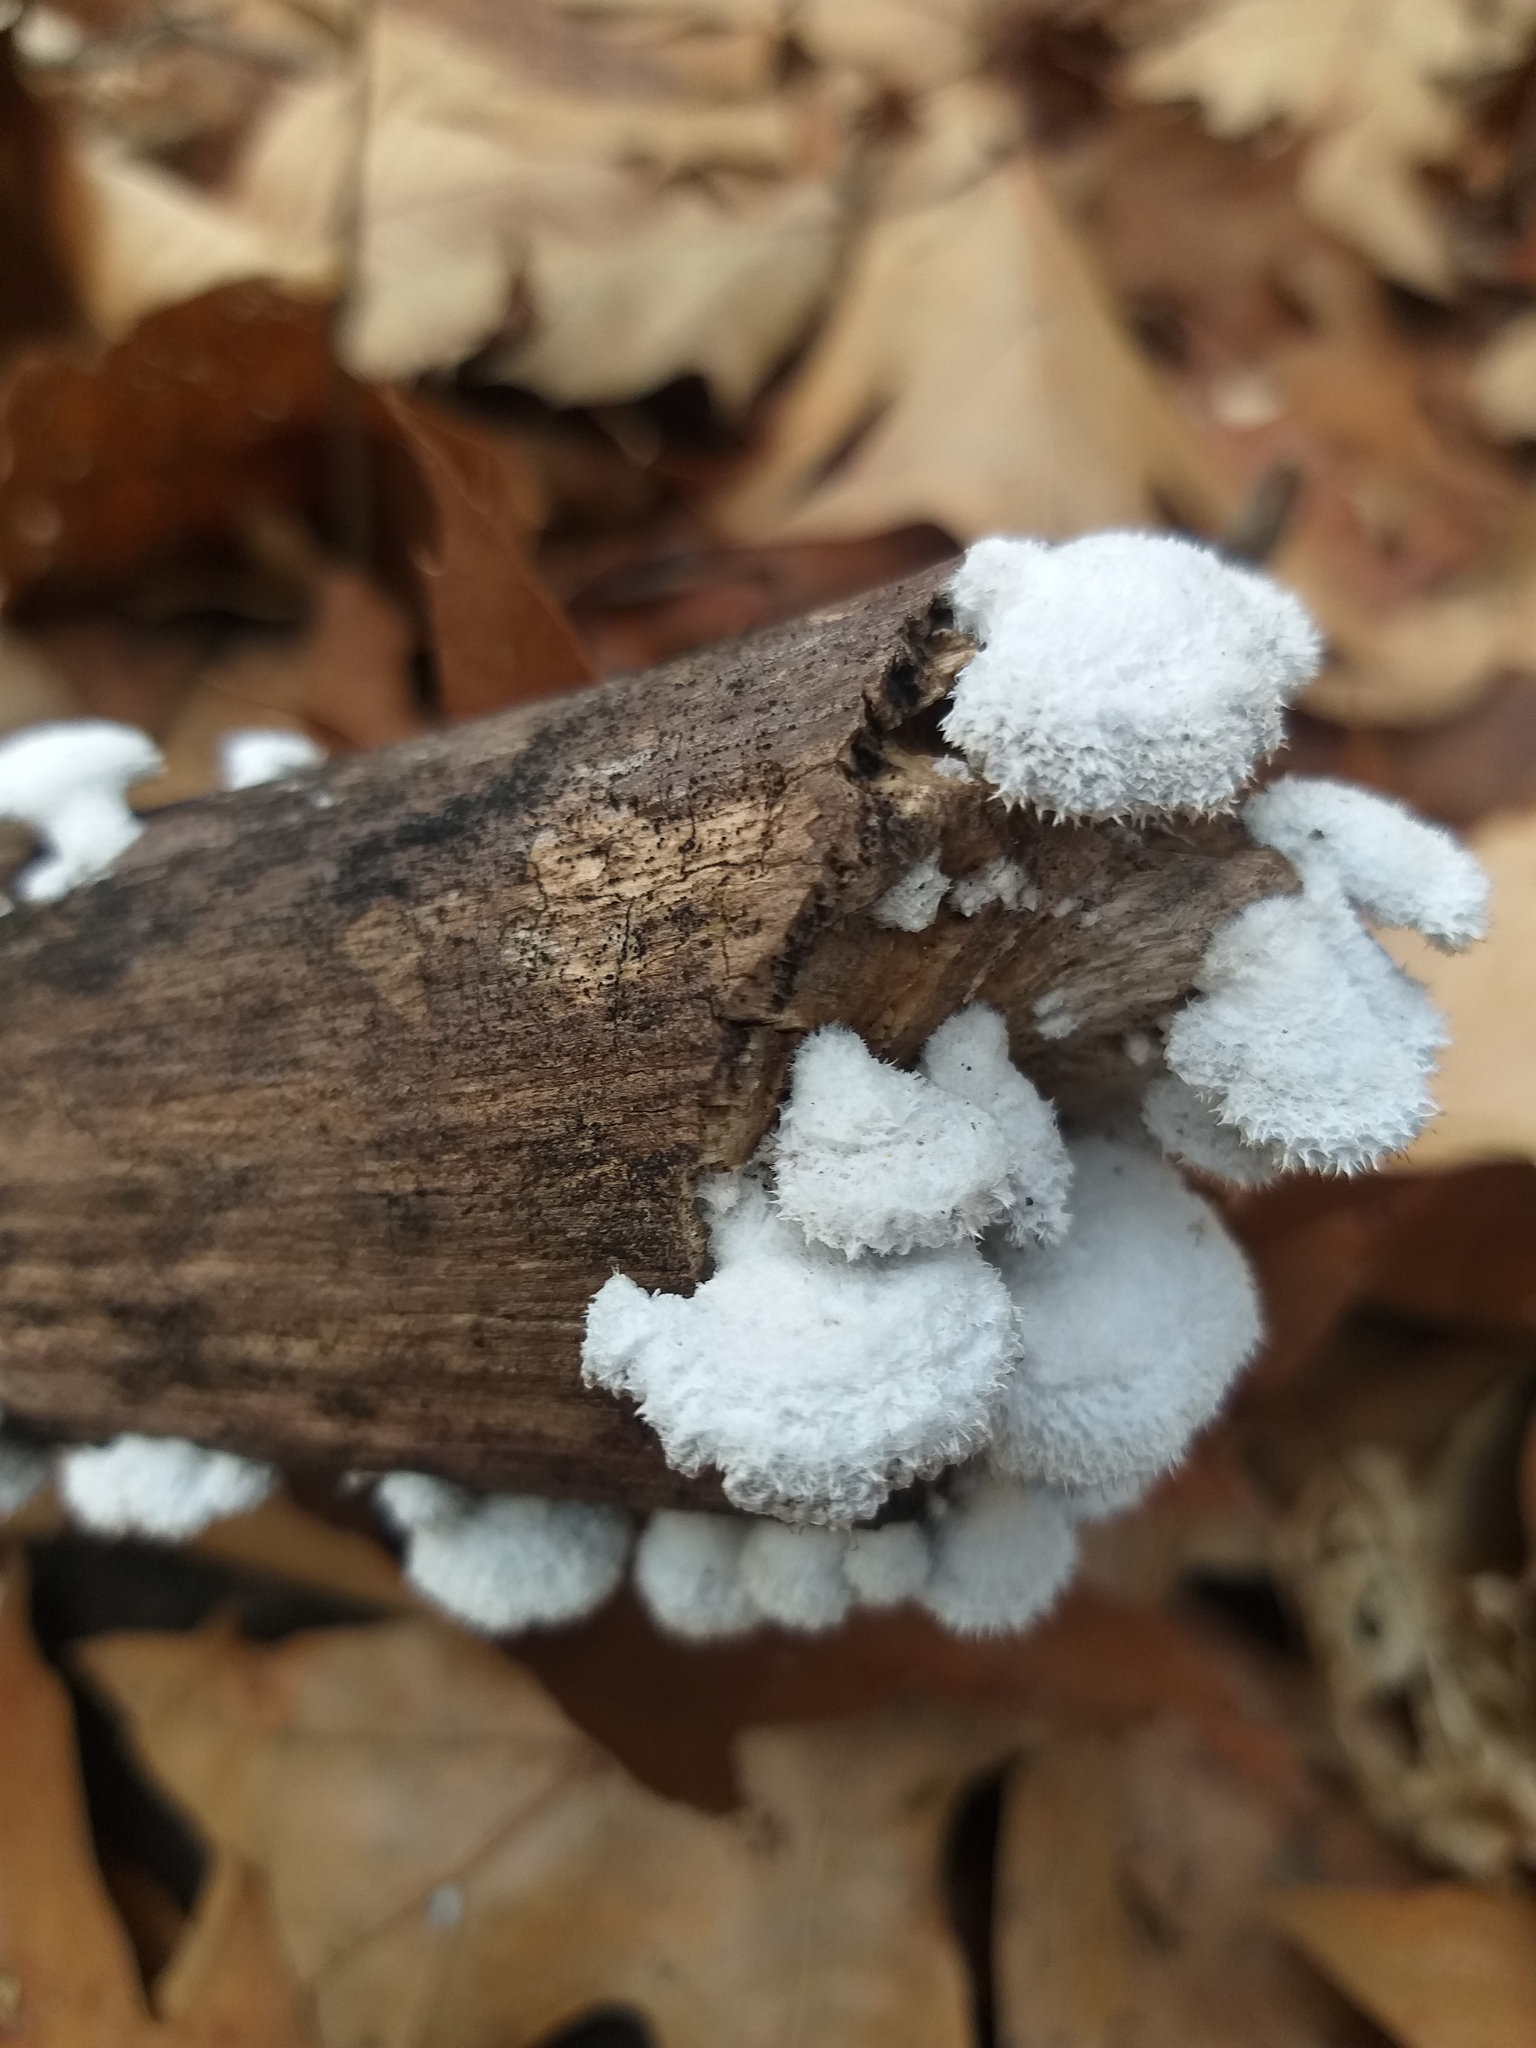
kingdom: Fungi
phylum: Basidiomycota
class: Agaricomycetes
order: Agaricales
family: Schizophyllaceae
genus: Schizophyllum
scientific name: Schizophyllum commune
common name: Common porecrust
